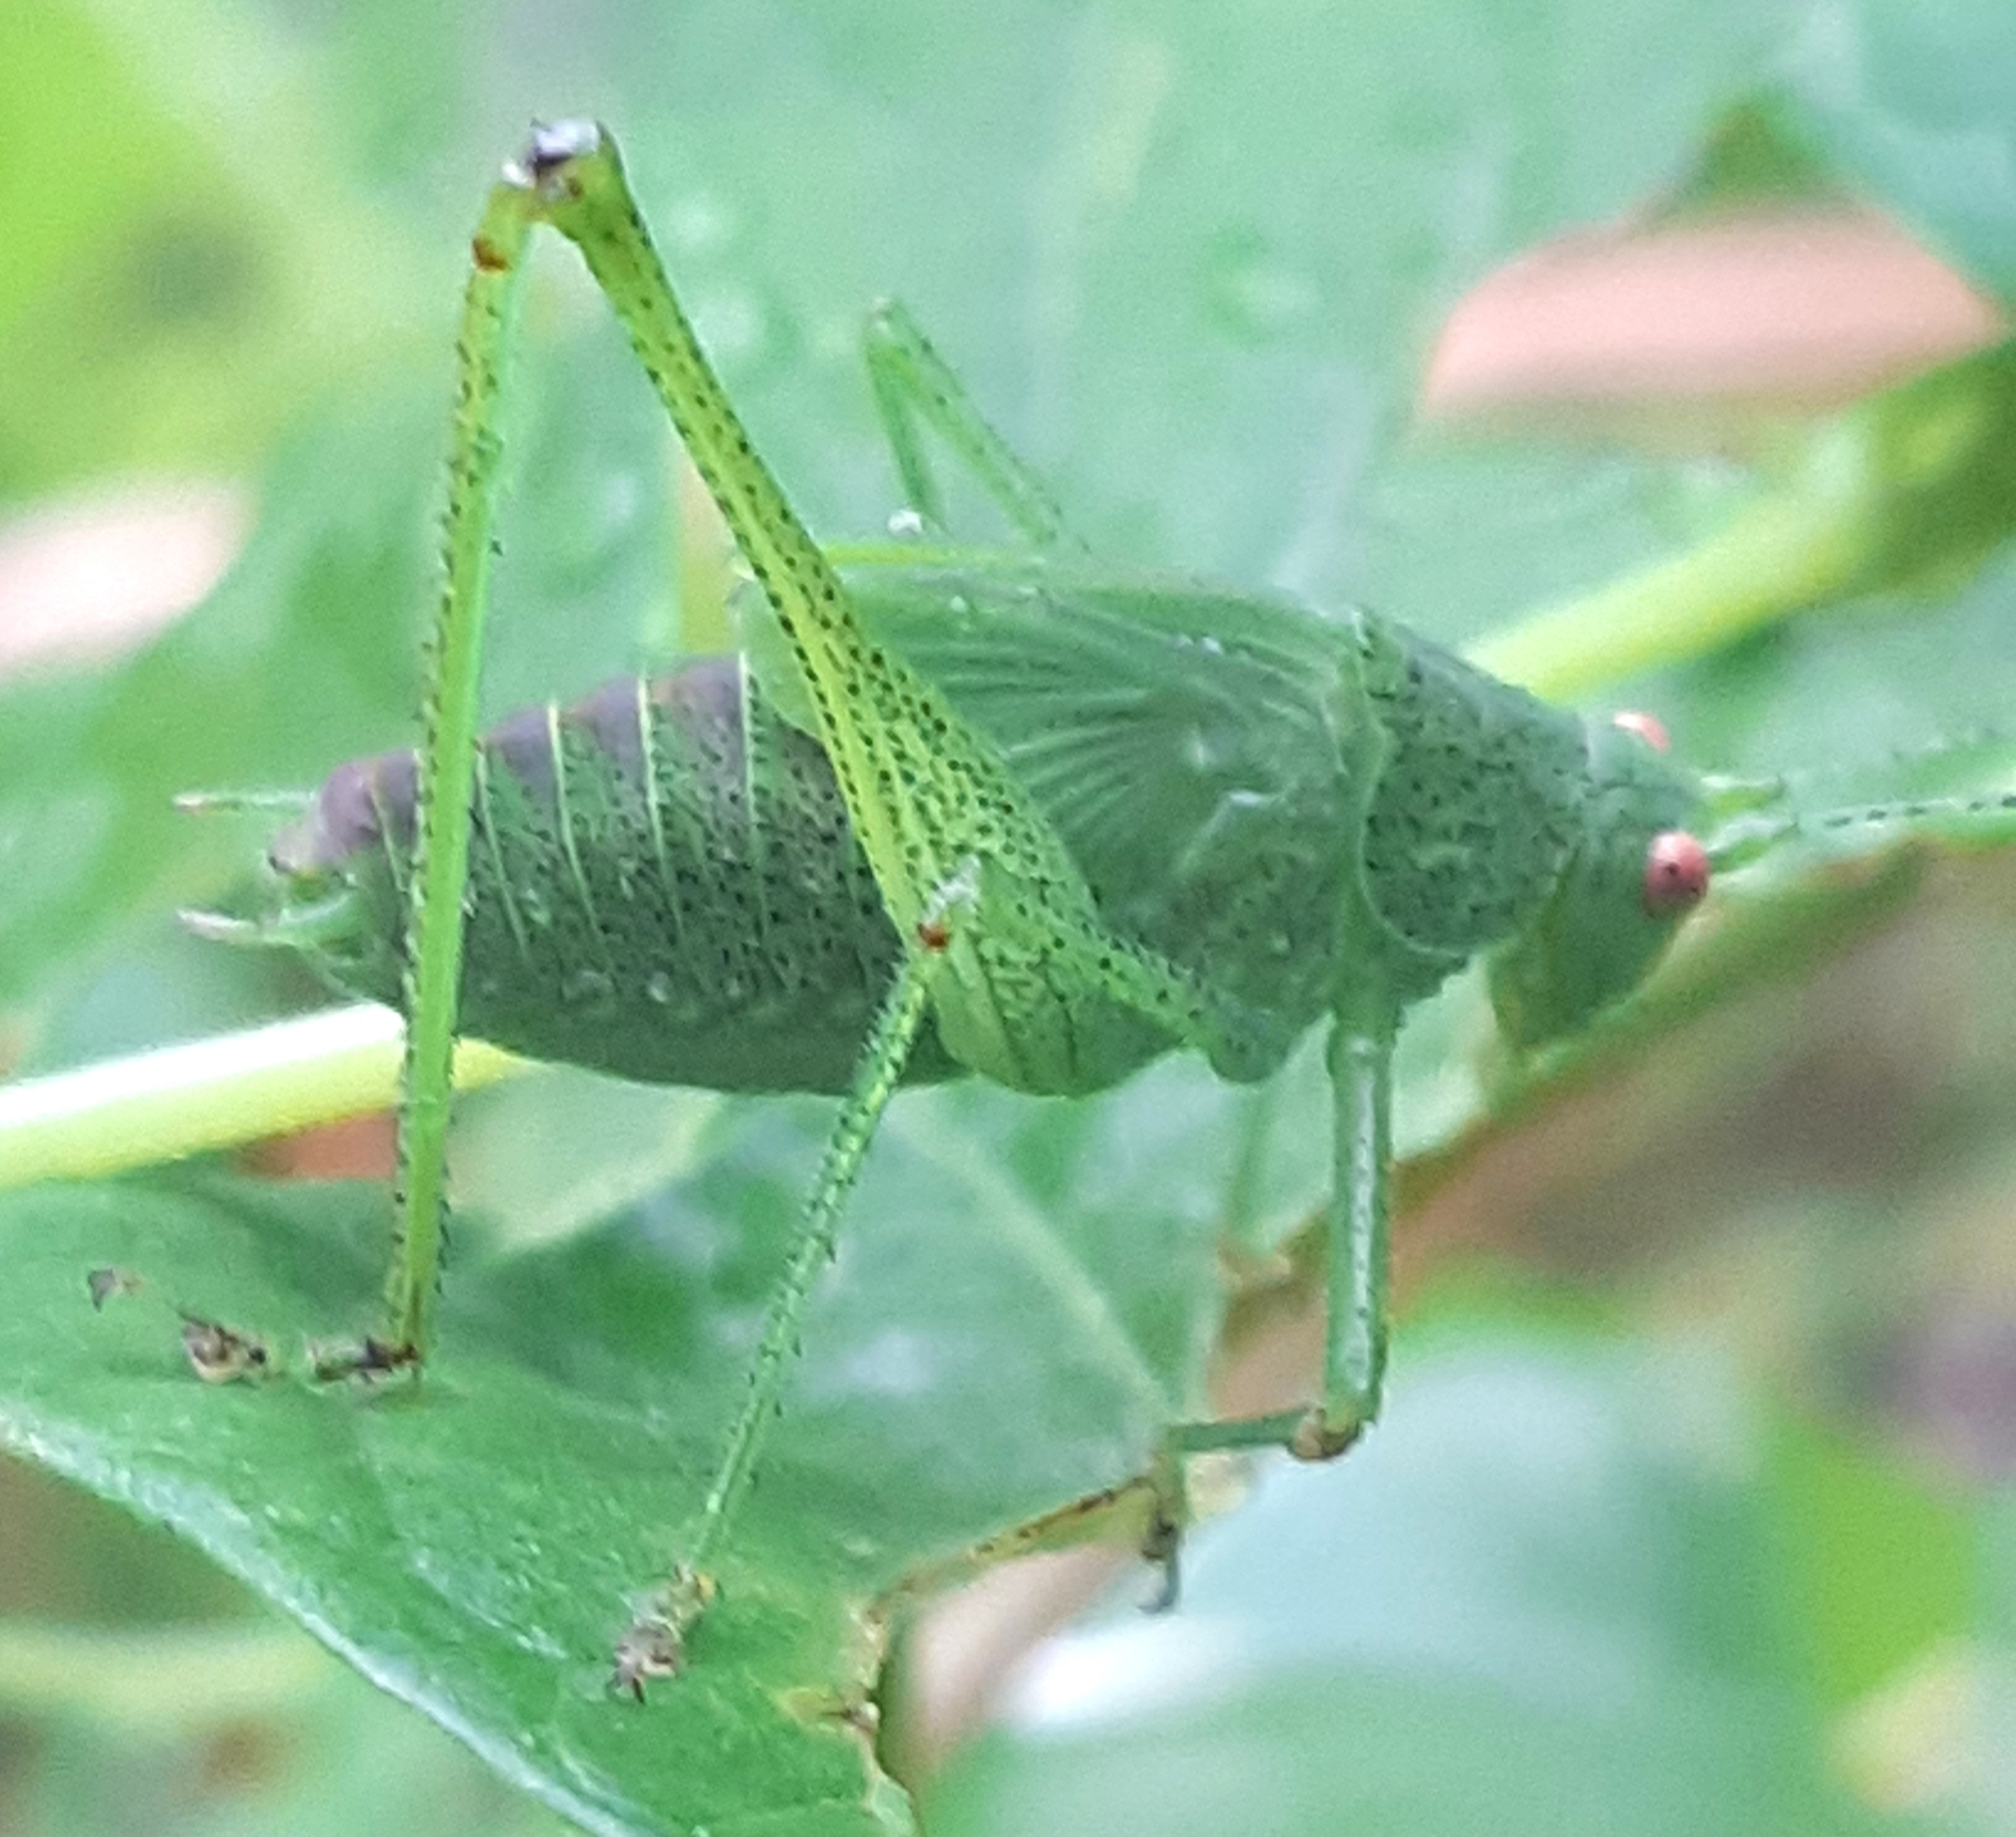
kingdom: Animalia
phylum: Arthropoda
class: Insecta
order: Orthoptera
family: Tettigoniidae
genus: Phaneroptera
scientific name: Phaneroptera nana
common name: Southern sickle bush-cricket
